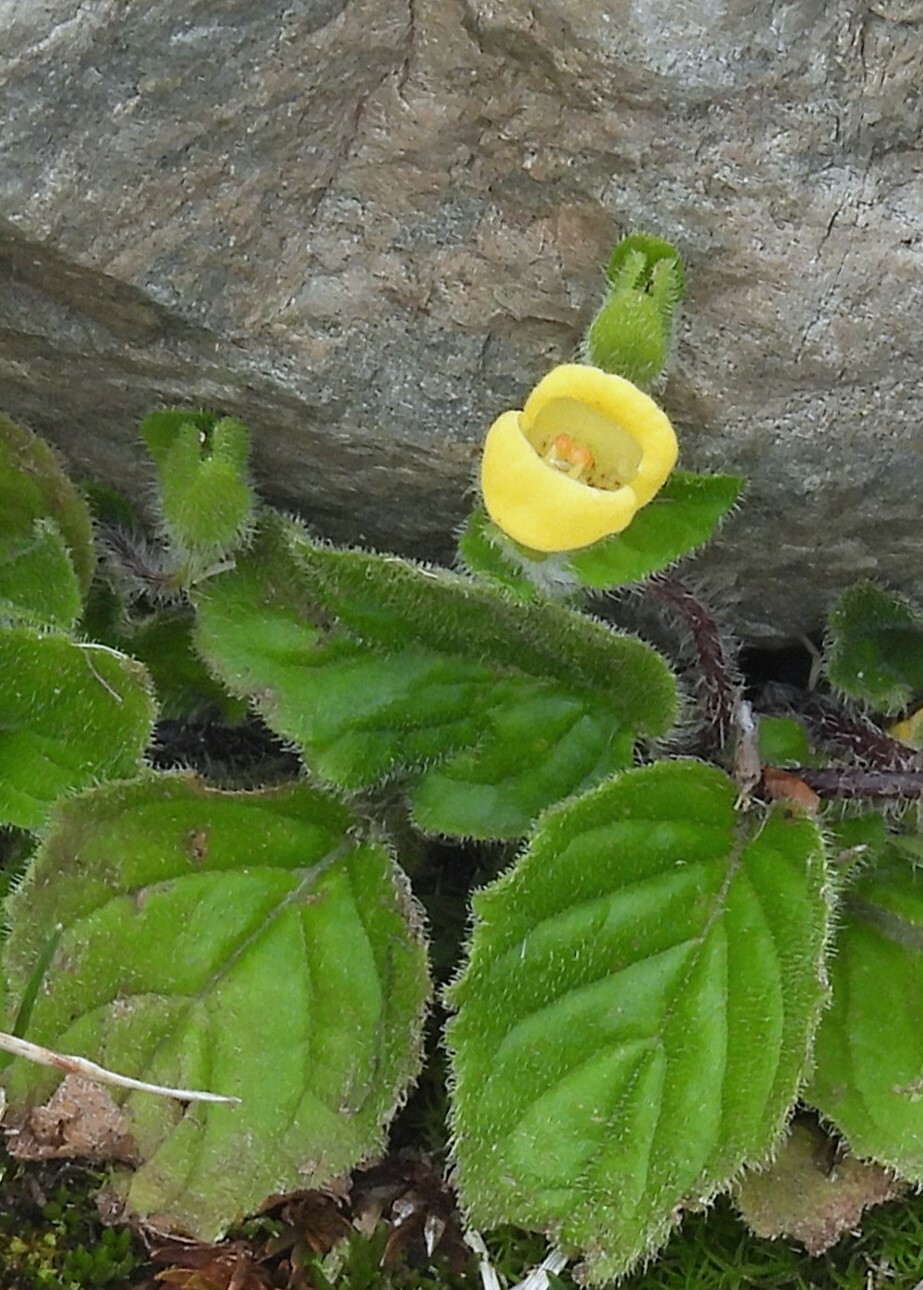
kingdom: Plantae
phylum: Tracheophyta
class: Magnoliopsida
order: Lamiales
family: Calceolariaceae
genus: Calceolaria
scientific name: Calceolaria tucumana
